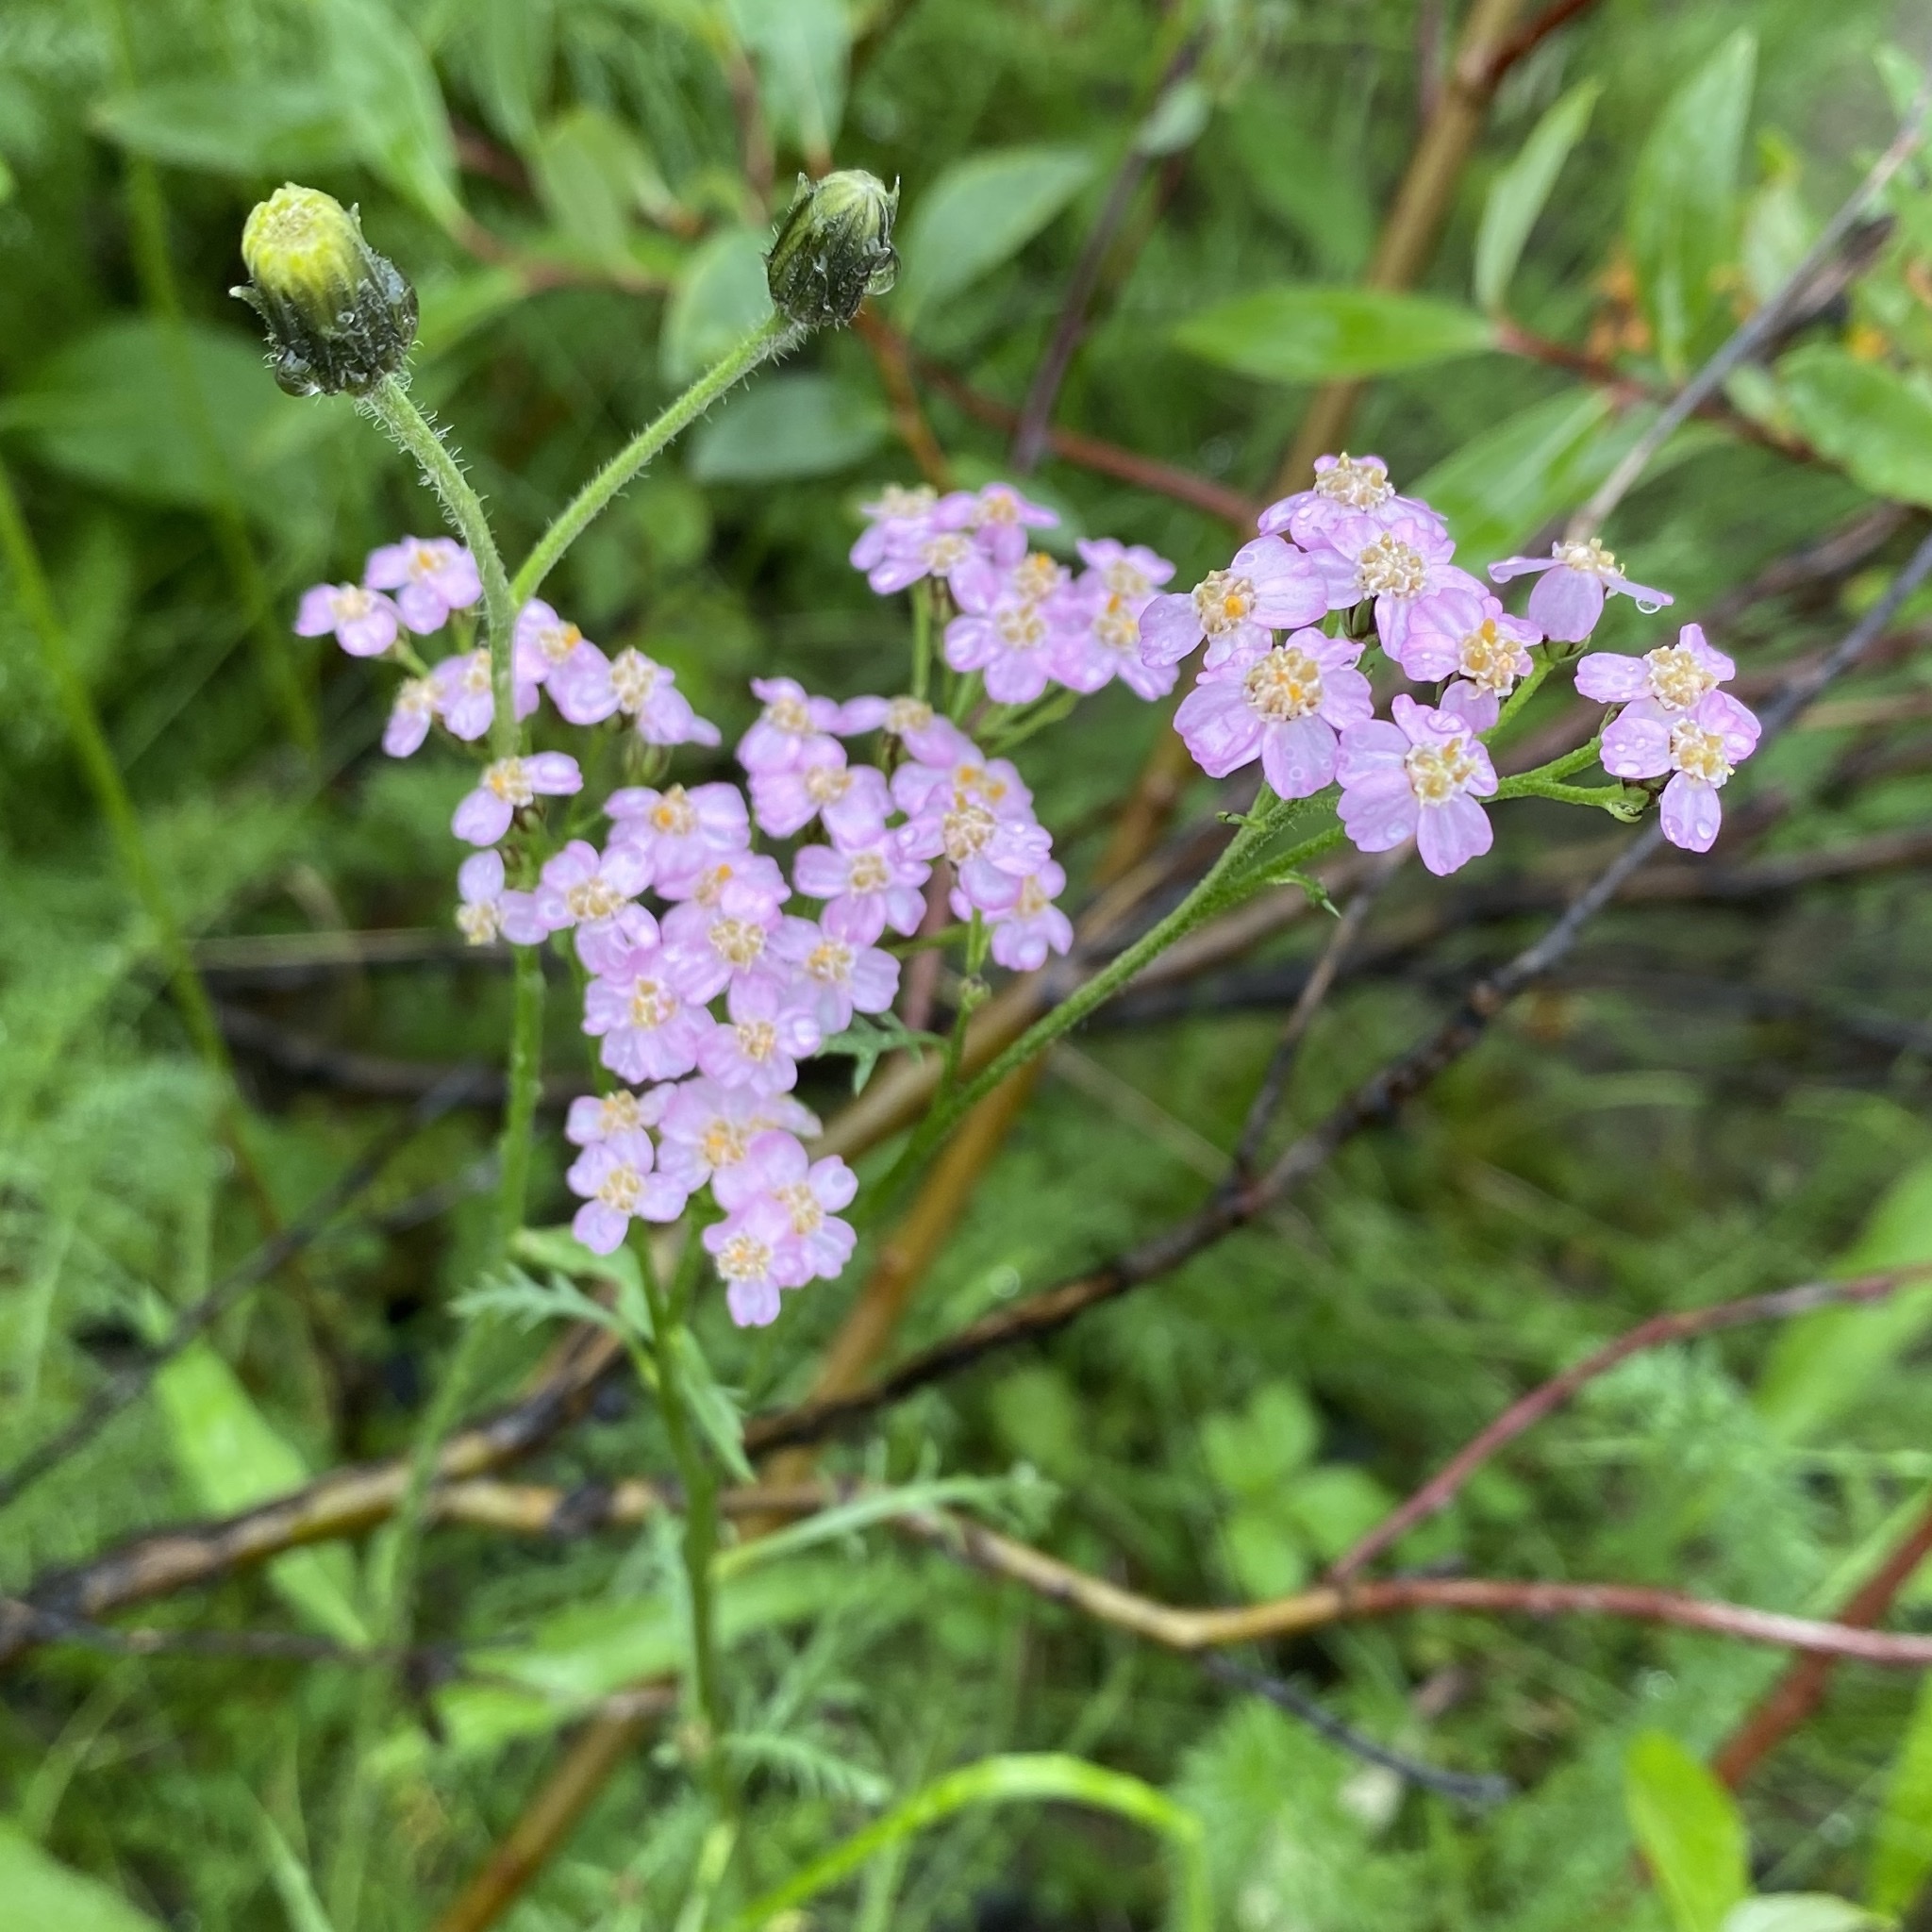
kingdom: Plantae
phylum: Tracheophyta
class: Magnoliopsida
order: Asterales
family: Asteraceae
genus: Achillea
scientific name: Achillea millefolium
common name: Yarrow
